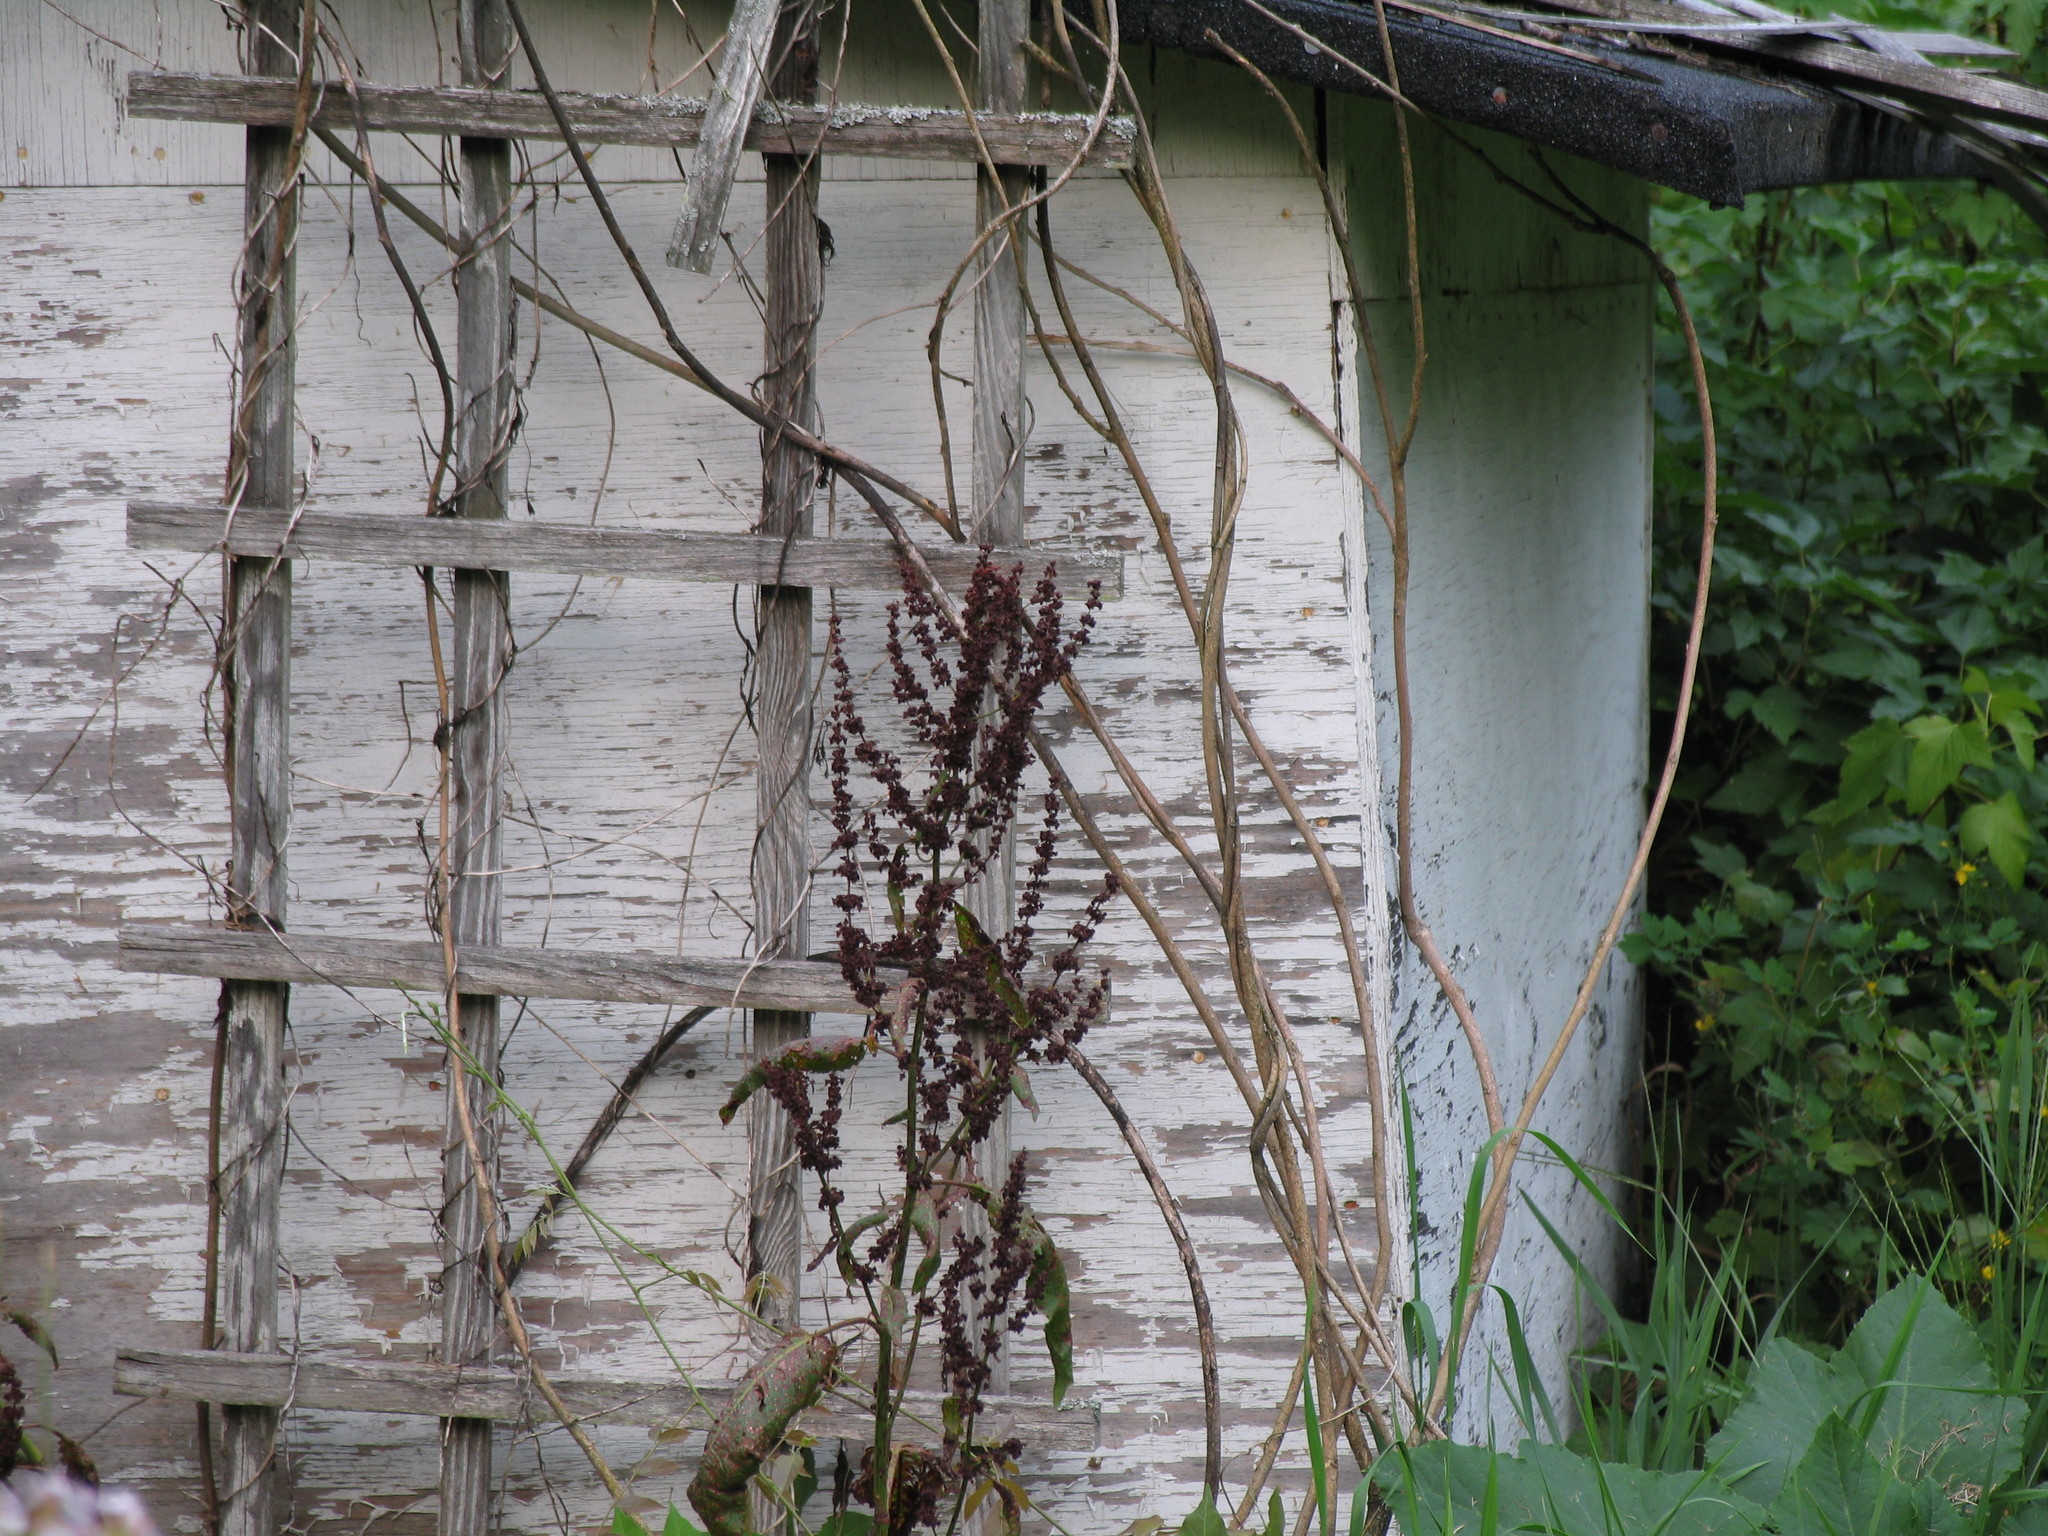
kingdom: Plantae
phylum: Tracheophyta
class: Magnoliopsida
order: Caryophyllales
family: Polygonaceae
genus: Rumex
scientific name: Rumex crispus
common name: Curled dock
